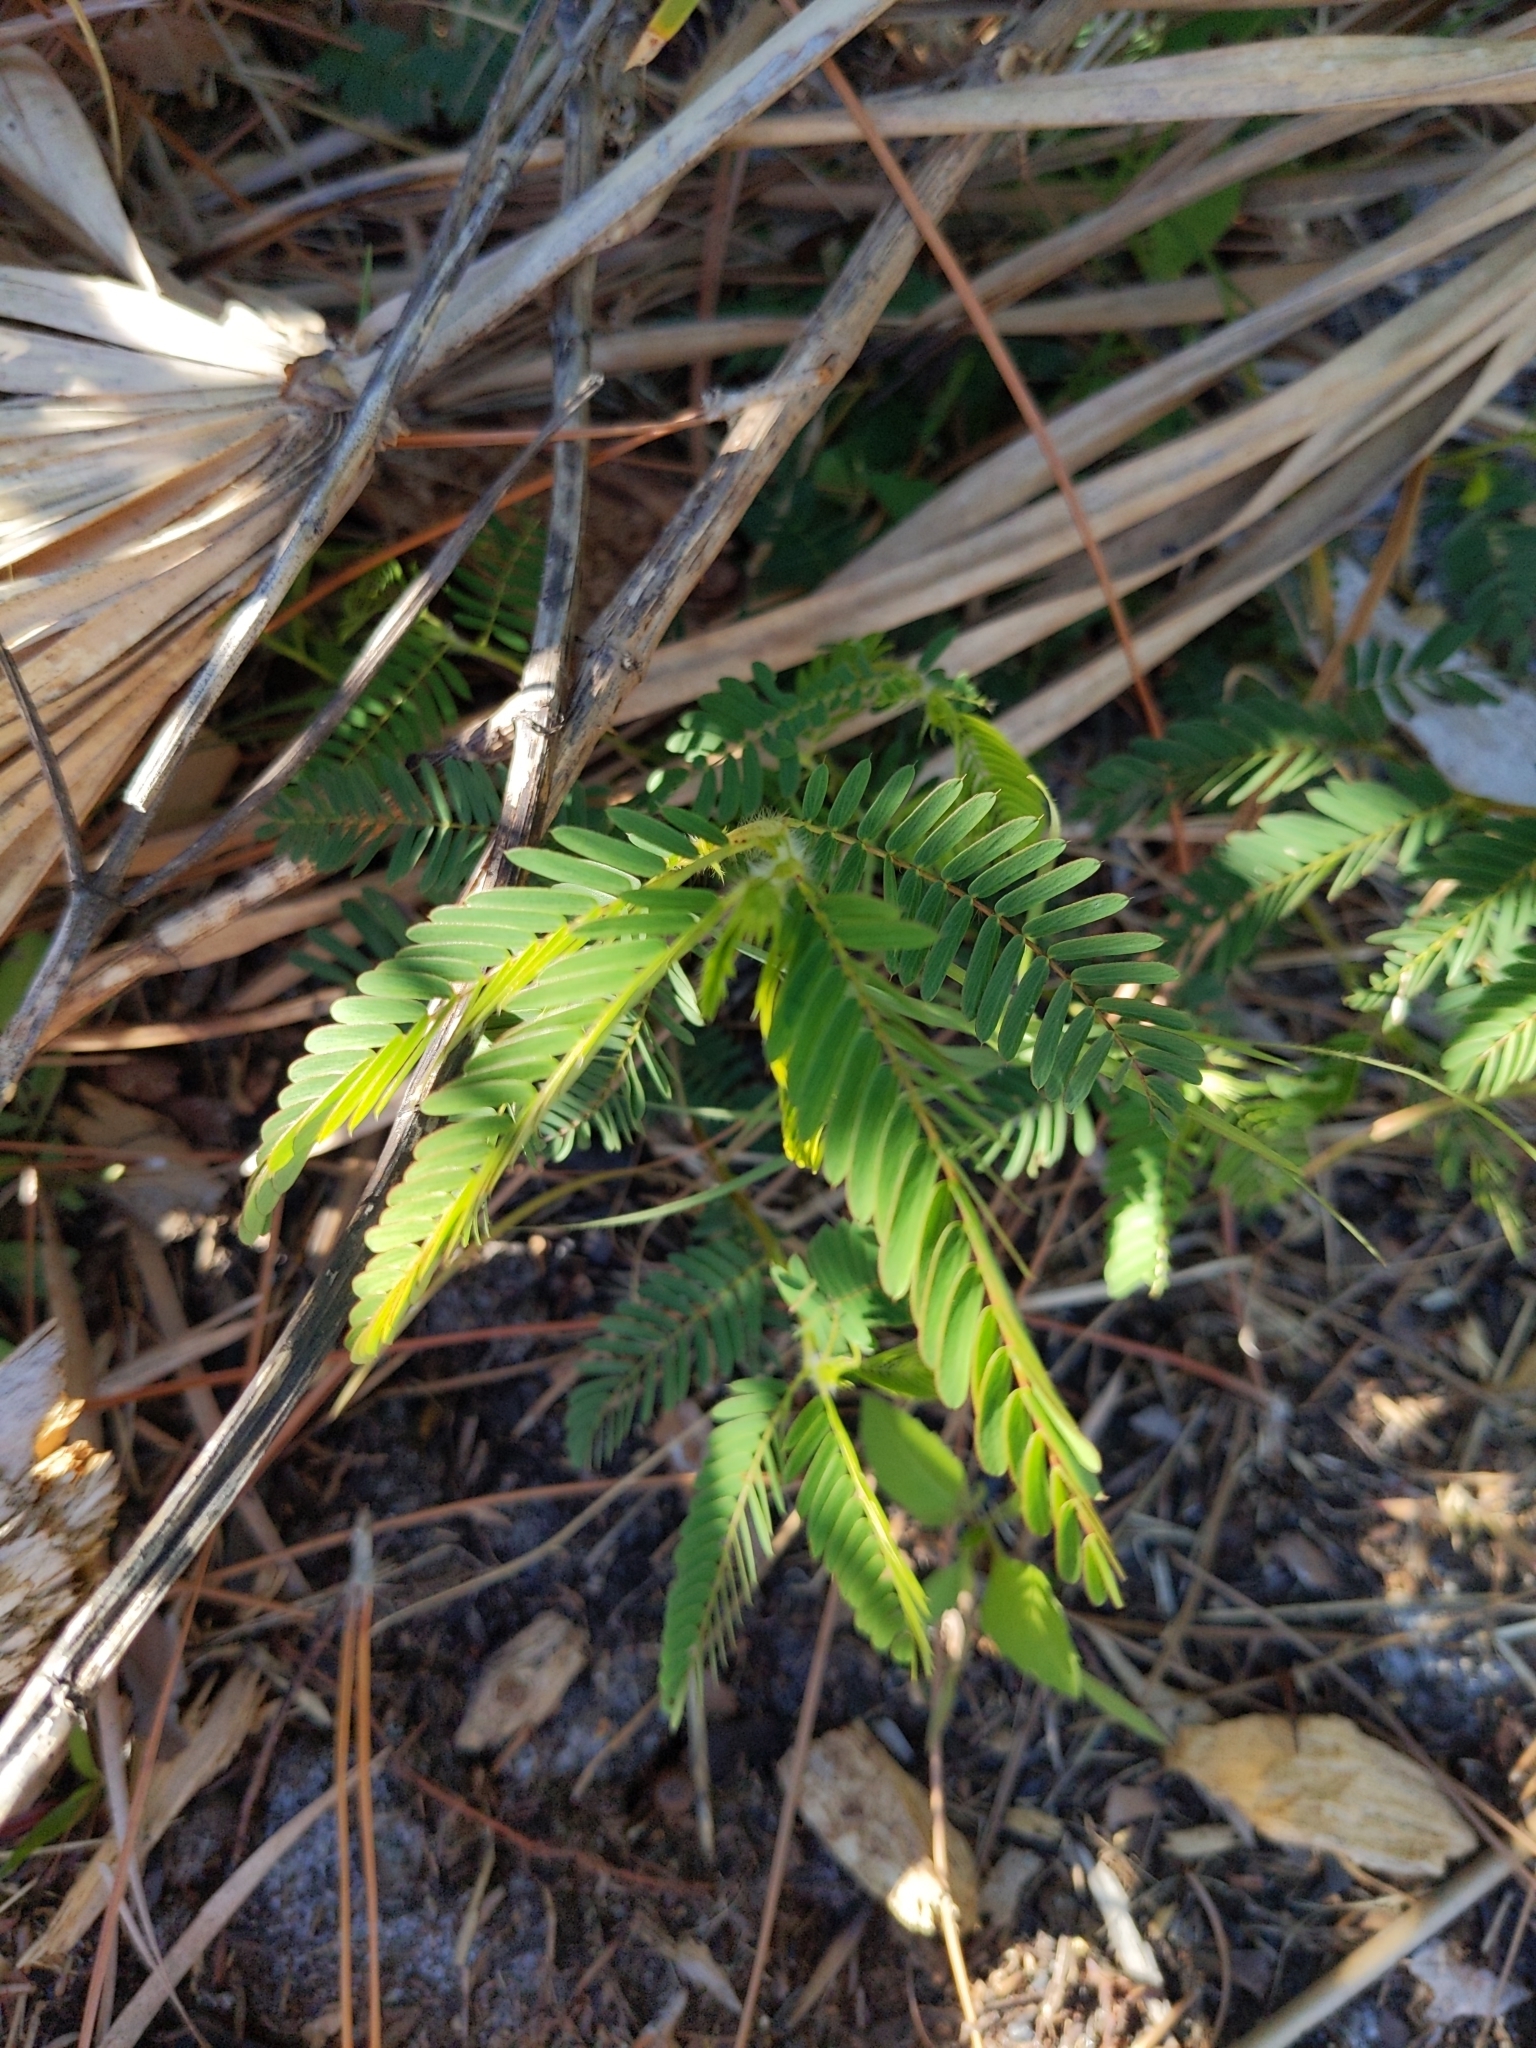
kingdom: Plantae
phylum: Tracheophyta
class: Magnoliopsida
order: Fabales
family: Fabaceae
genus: Chamaecrista
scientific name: Chamaecrista nictitans
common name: Sensitive cassia
